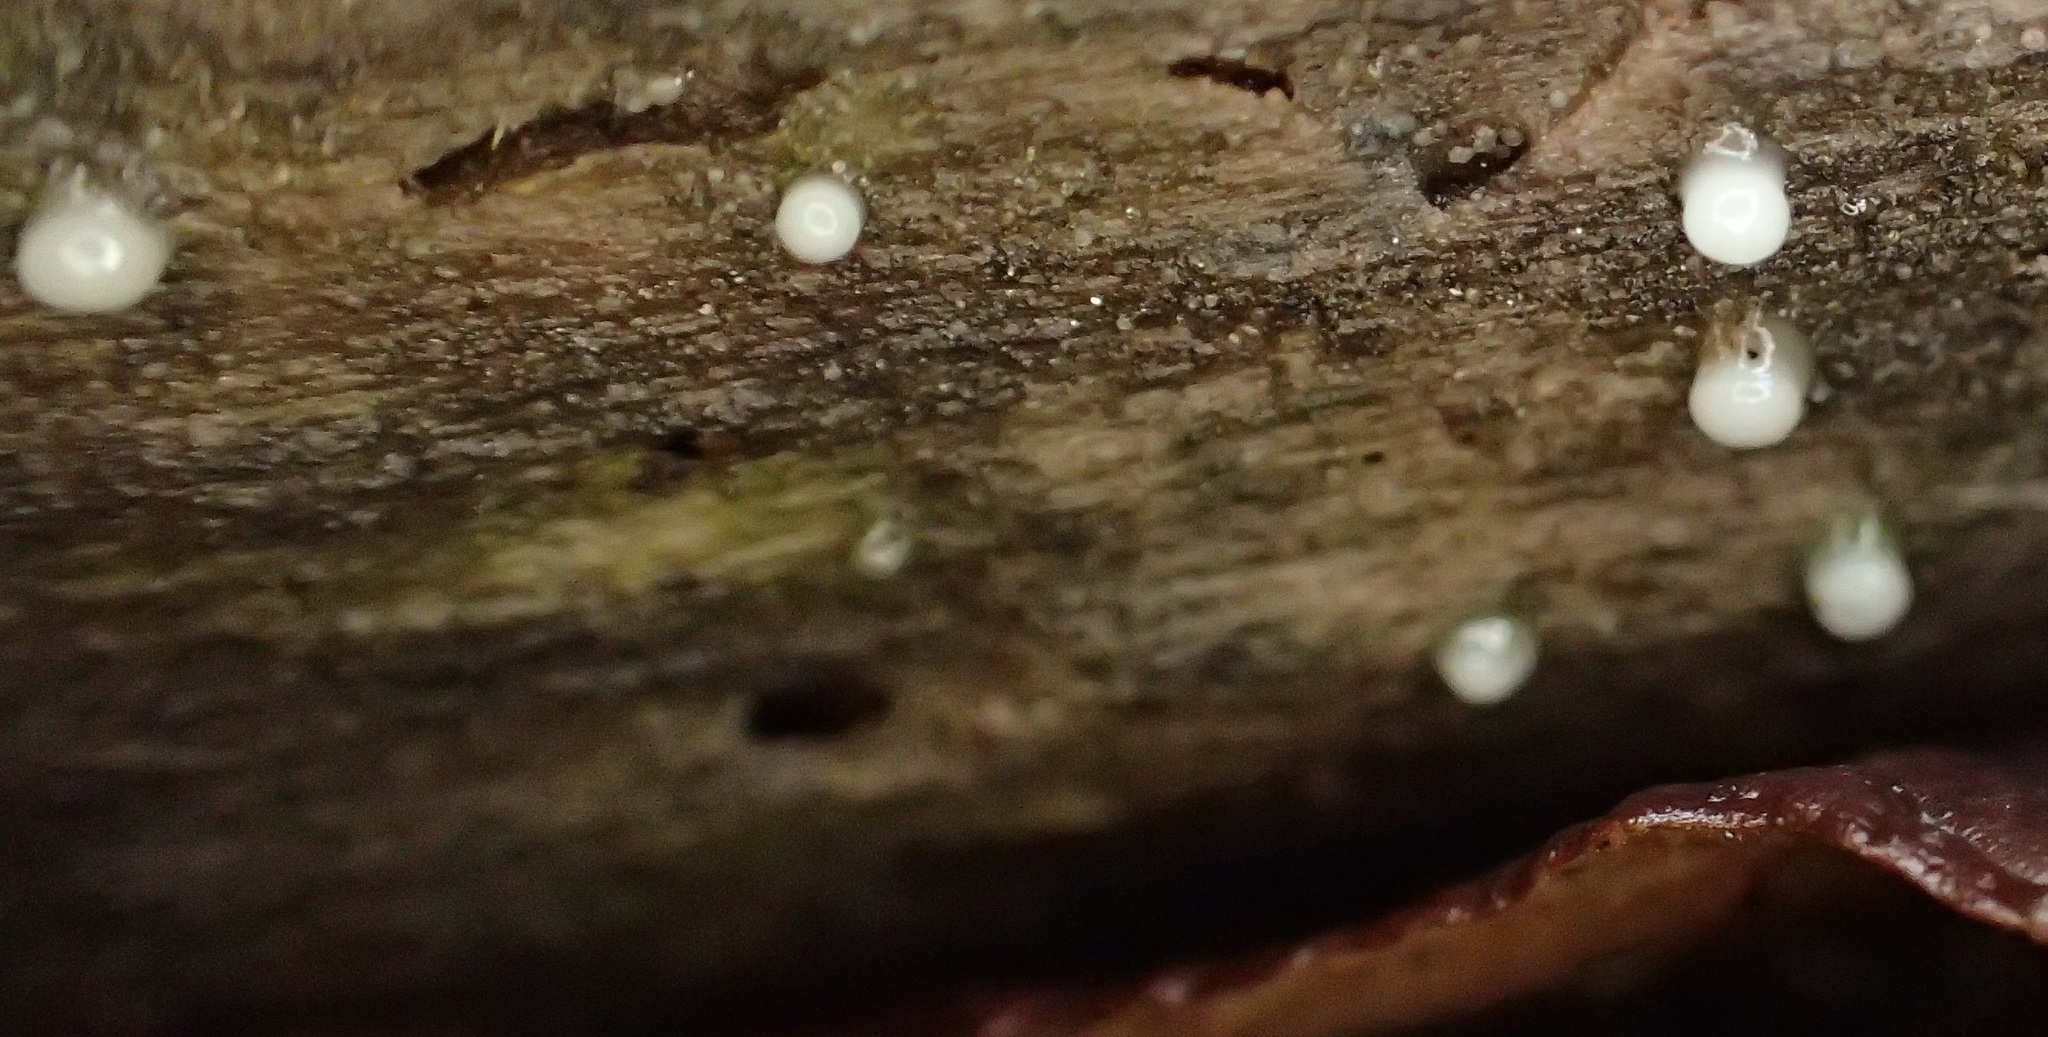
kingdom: Fungi
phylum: Basidiomycota
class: Atractiellomycetes
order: Atractiellales
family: Phleogenaceae
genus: Helicogloea
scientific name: Helicogloea compressa
